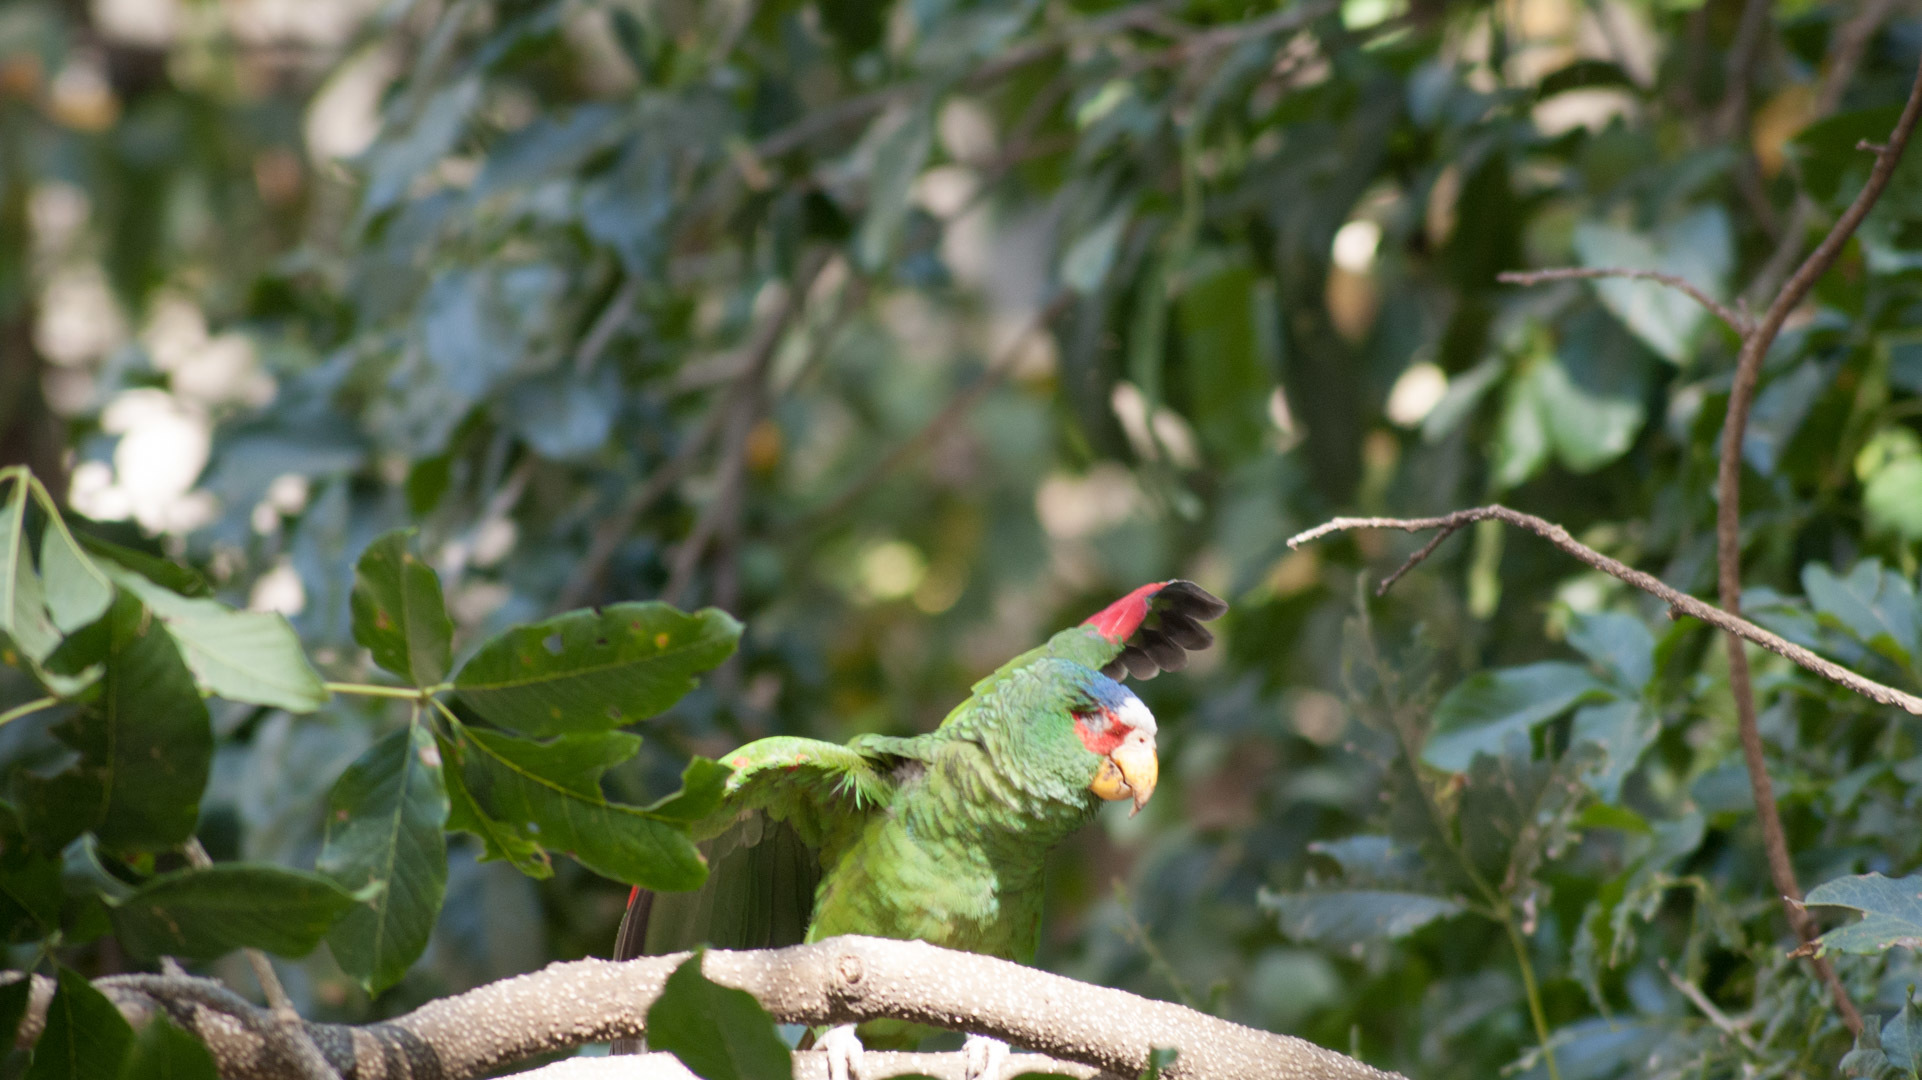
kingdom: Animalia
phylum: Chordata
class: Aves
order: Psittaciformes
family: Psittacidae
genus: Amazona
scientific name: Amazona albifrons
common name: White-fronted amazon
